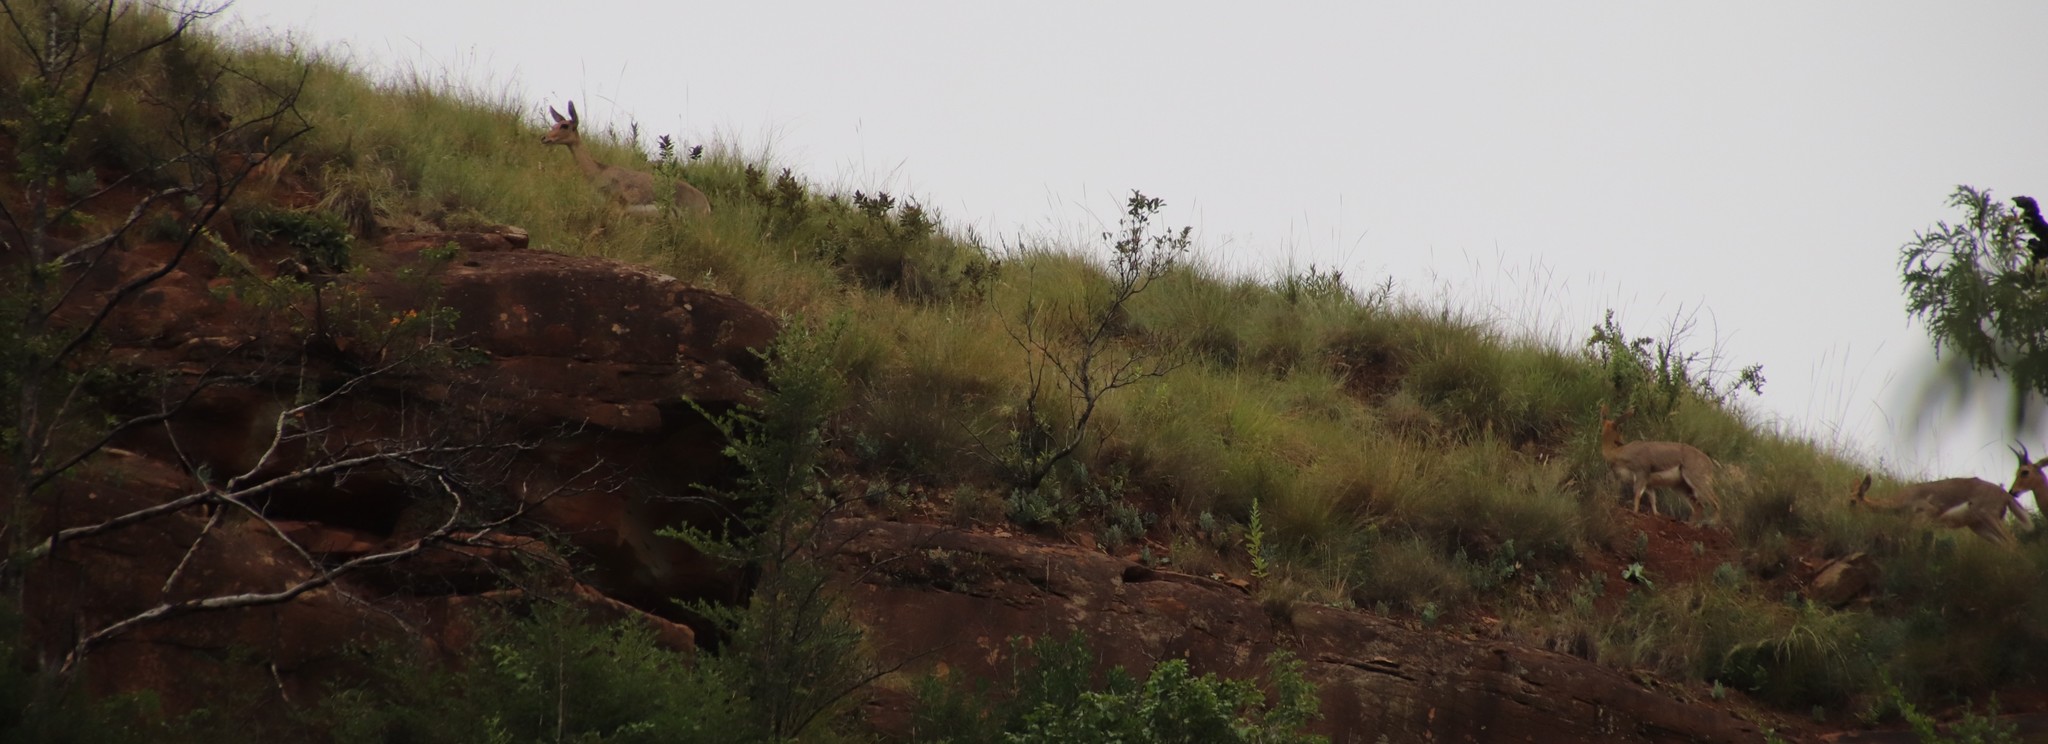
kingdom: Animalia
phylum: Chordata
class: Mammalia
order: Artiodactyla
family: Bovidae
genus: Redunca
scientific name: Redunca fulvorufula
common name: Mountain reedbuck
